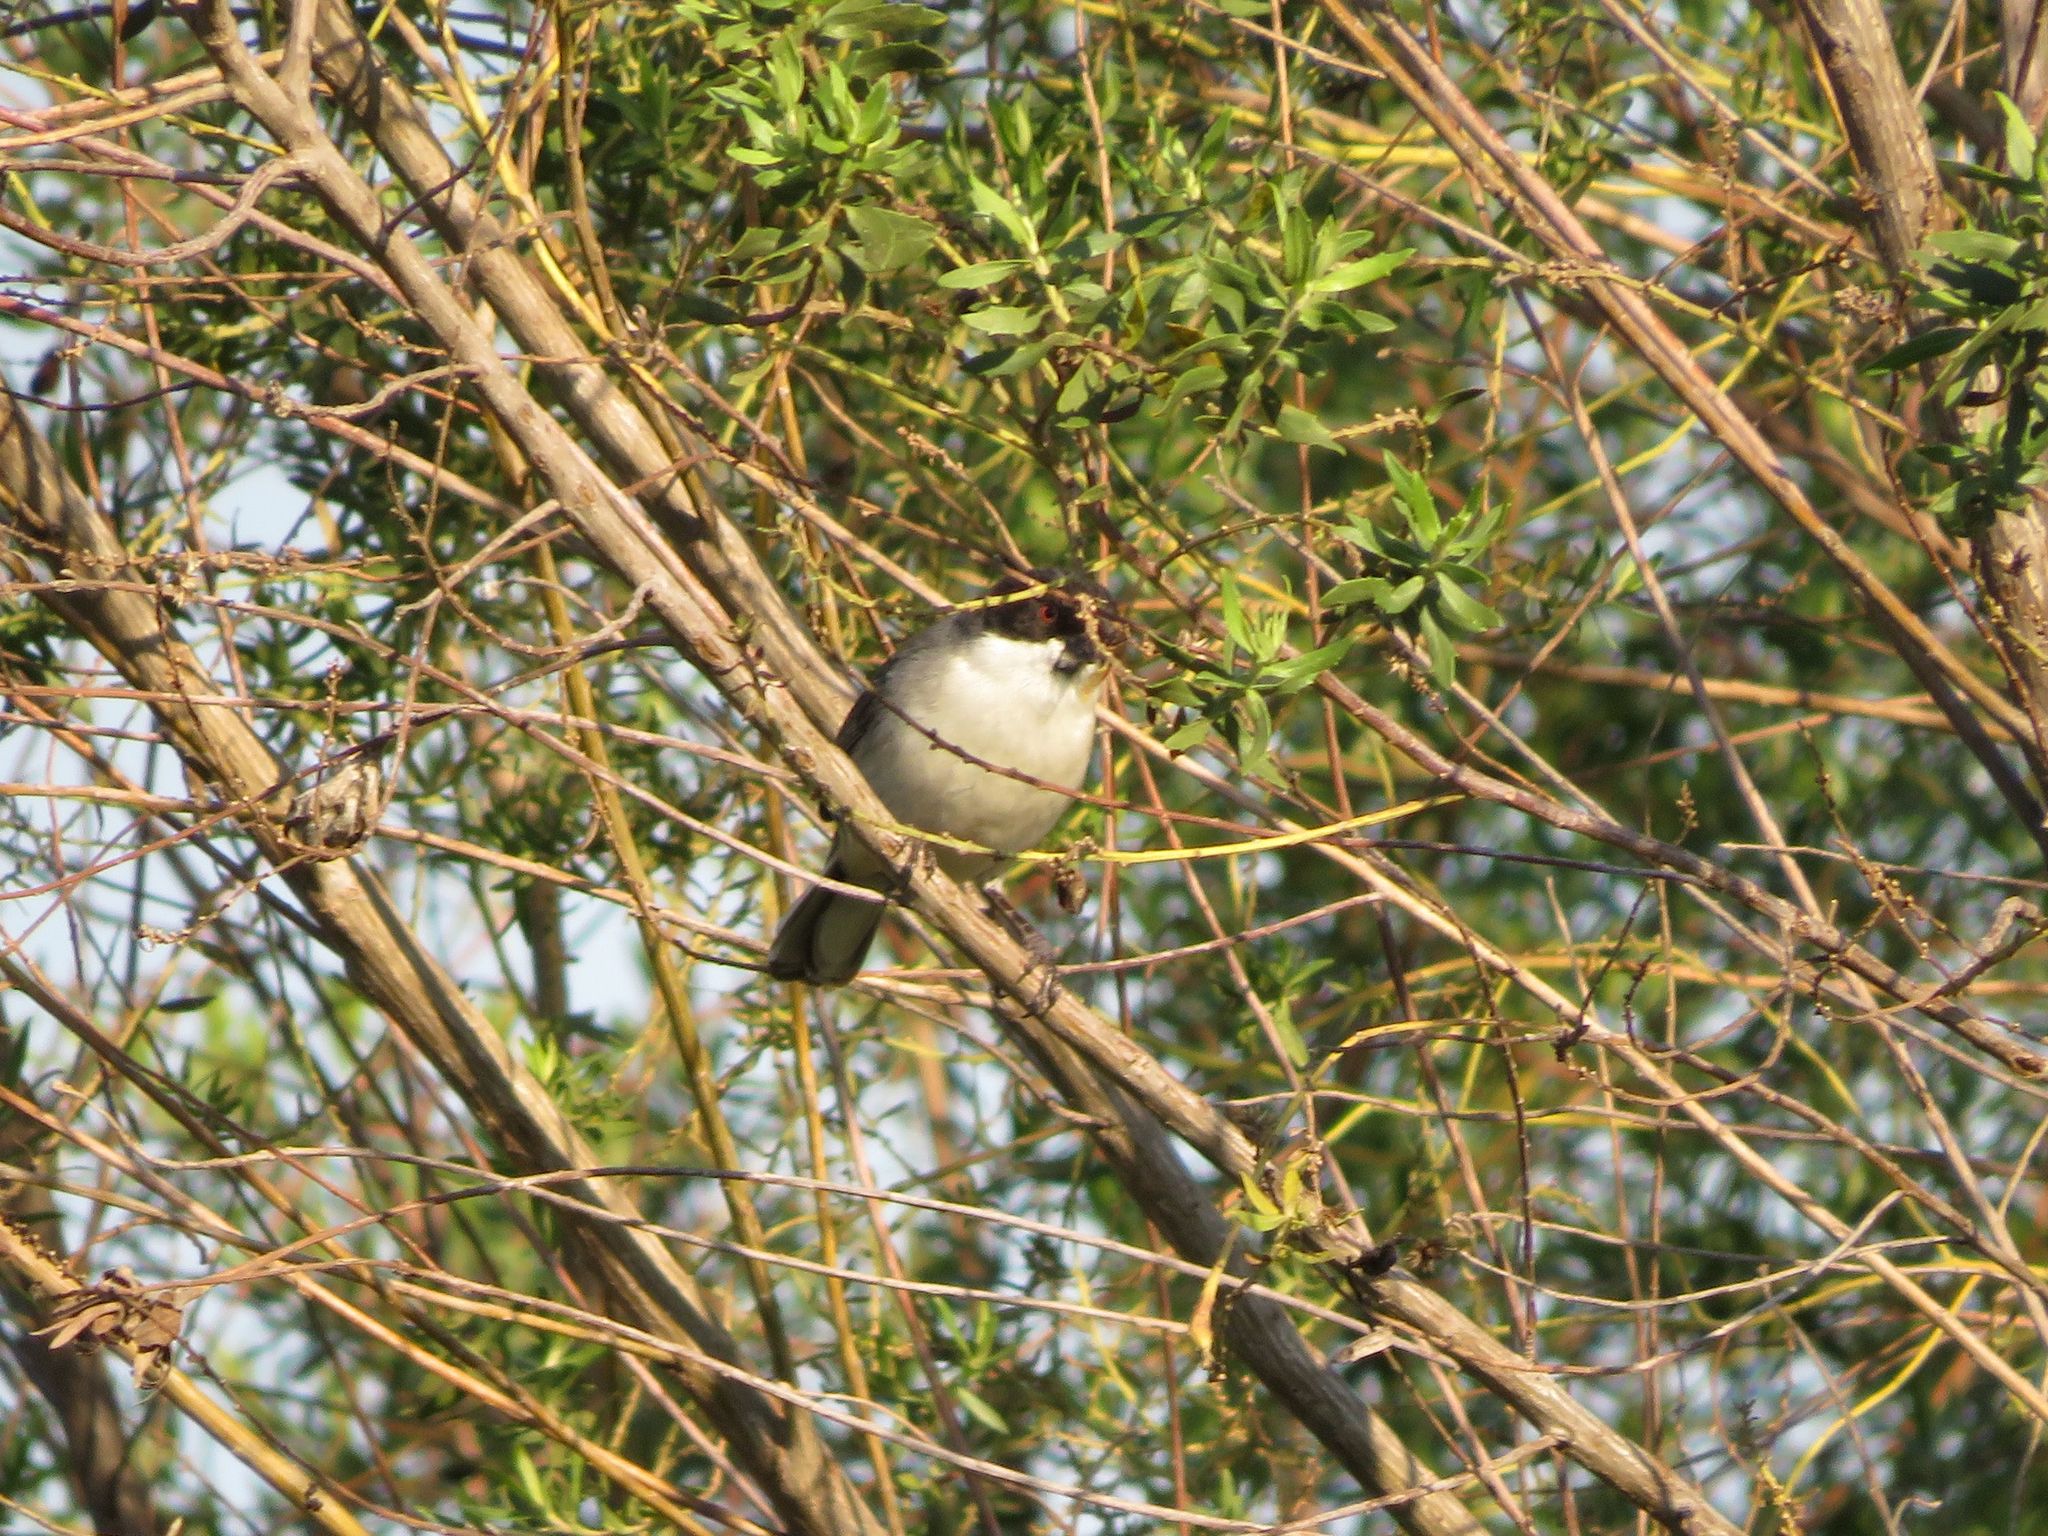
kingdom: Animalia
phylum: Chordata
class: Aves
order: Passeriformes
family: Thraupidae
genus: Microspingus
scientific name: Microspingus melanoleucus
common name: Black-capped warbling-finch
